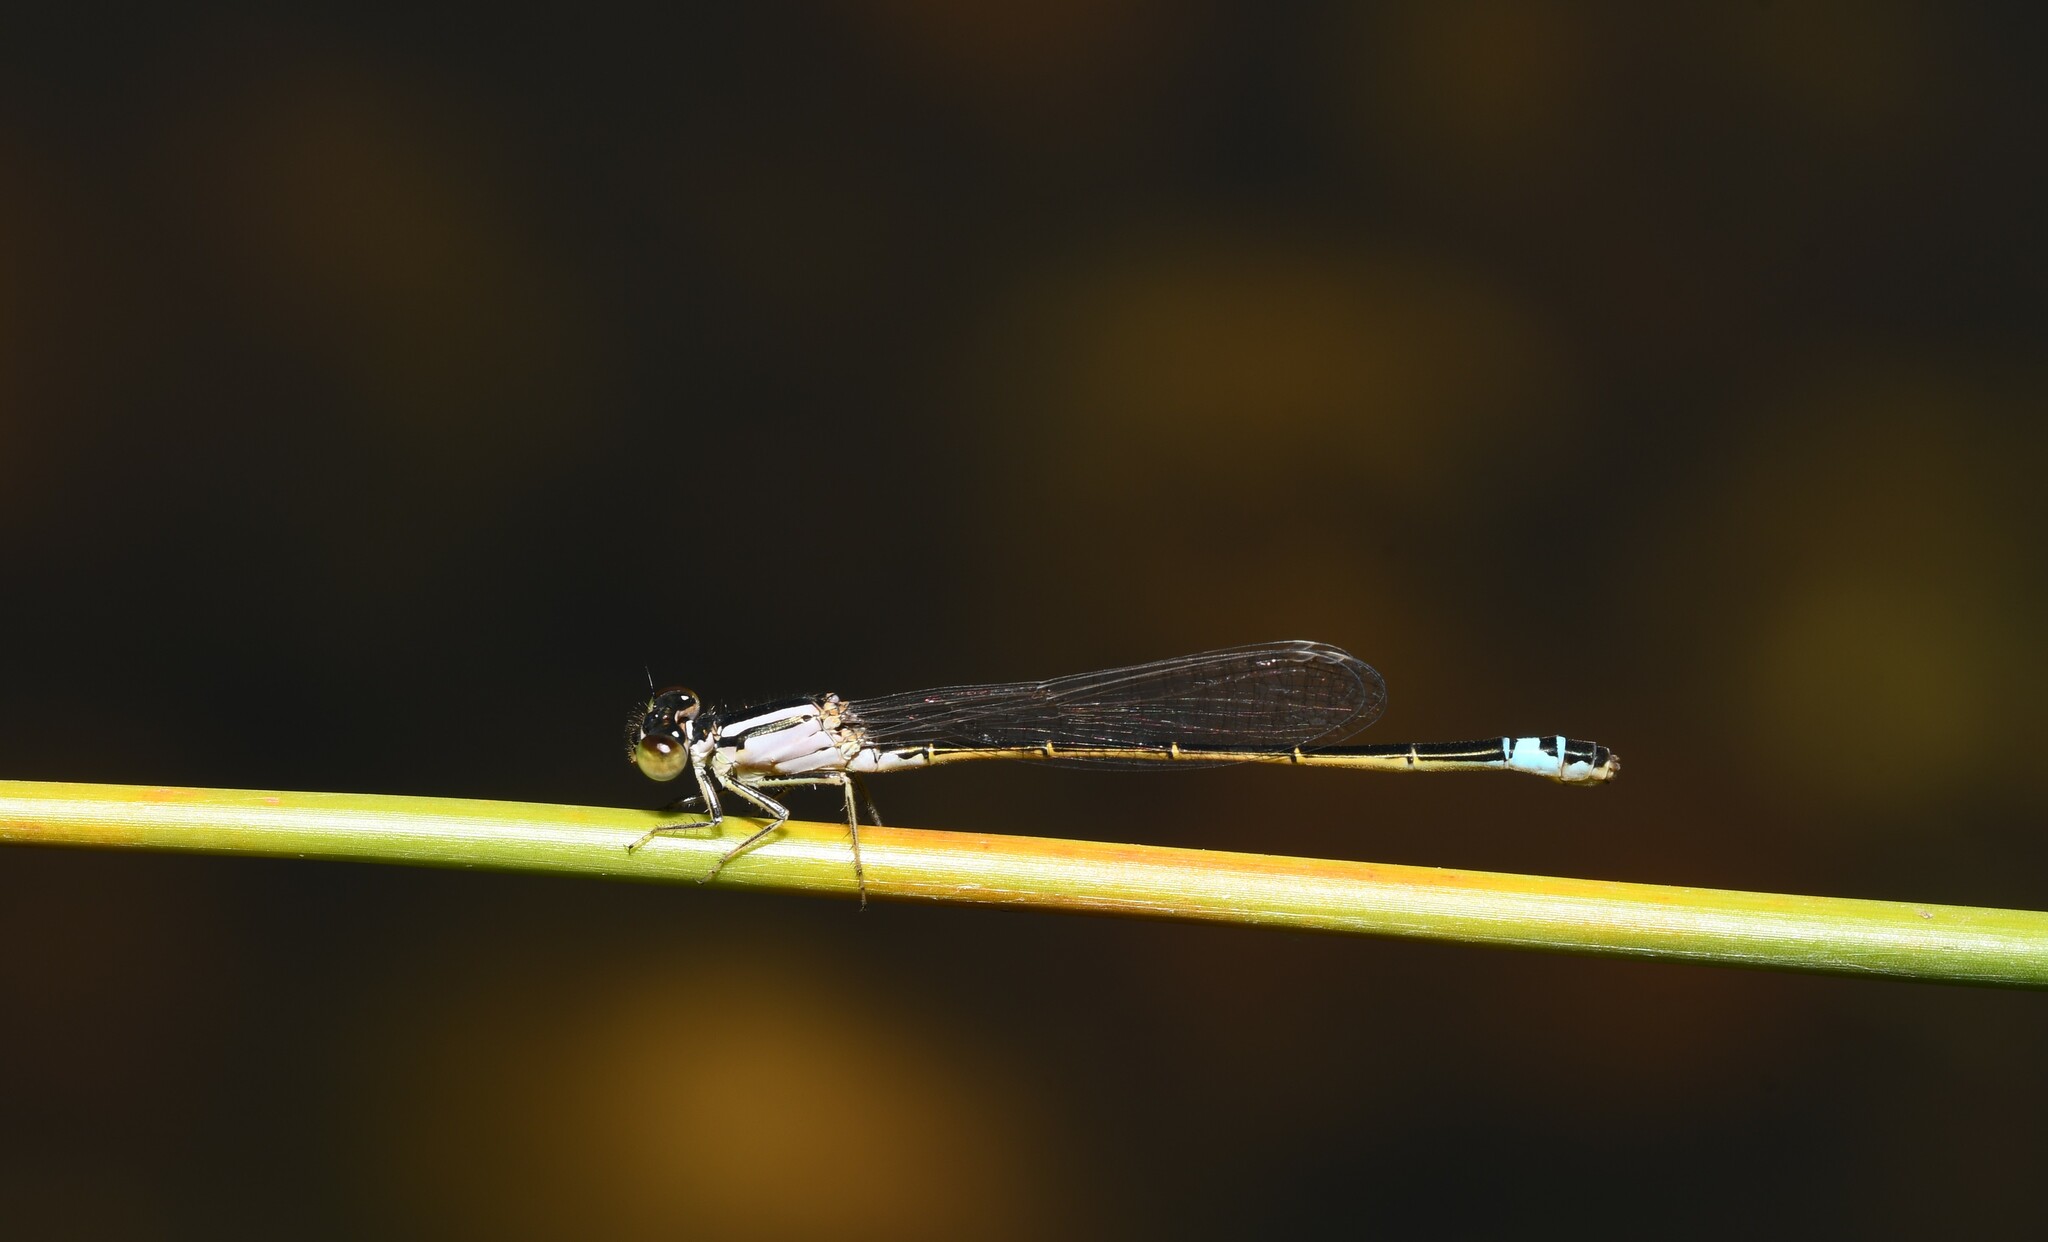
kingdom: Animalia
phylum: Arthropoda
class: Insecta
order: Odonata
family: Coenagrionidae
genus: Ischnura
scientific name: Ischnura graellsii
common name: Iberian bluetail
